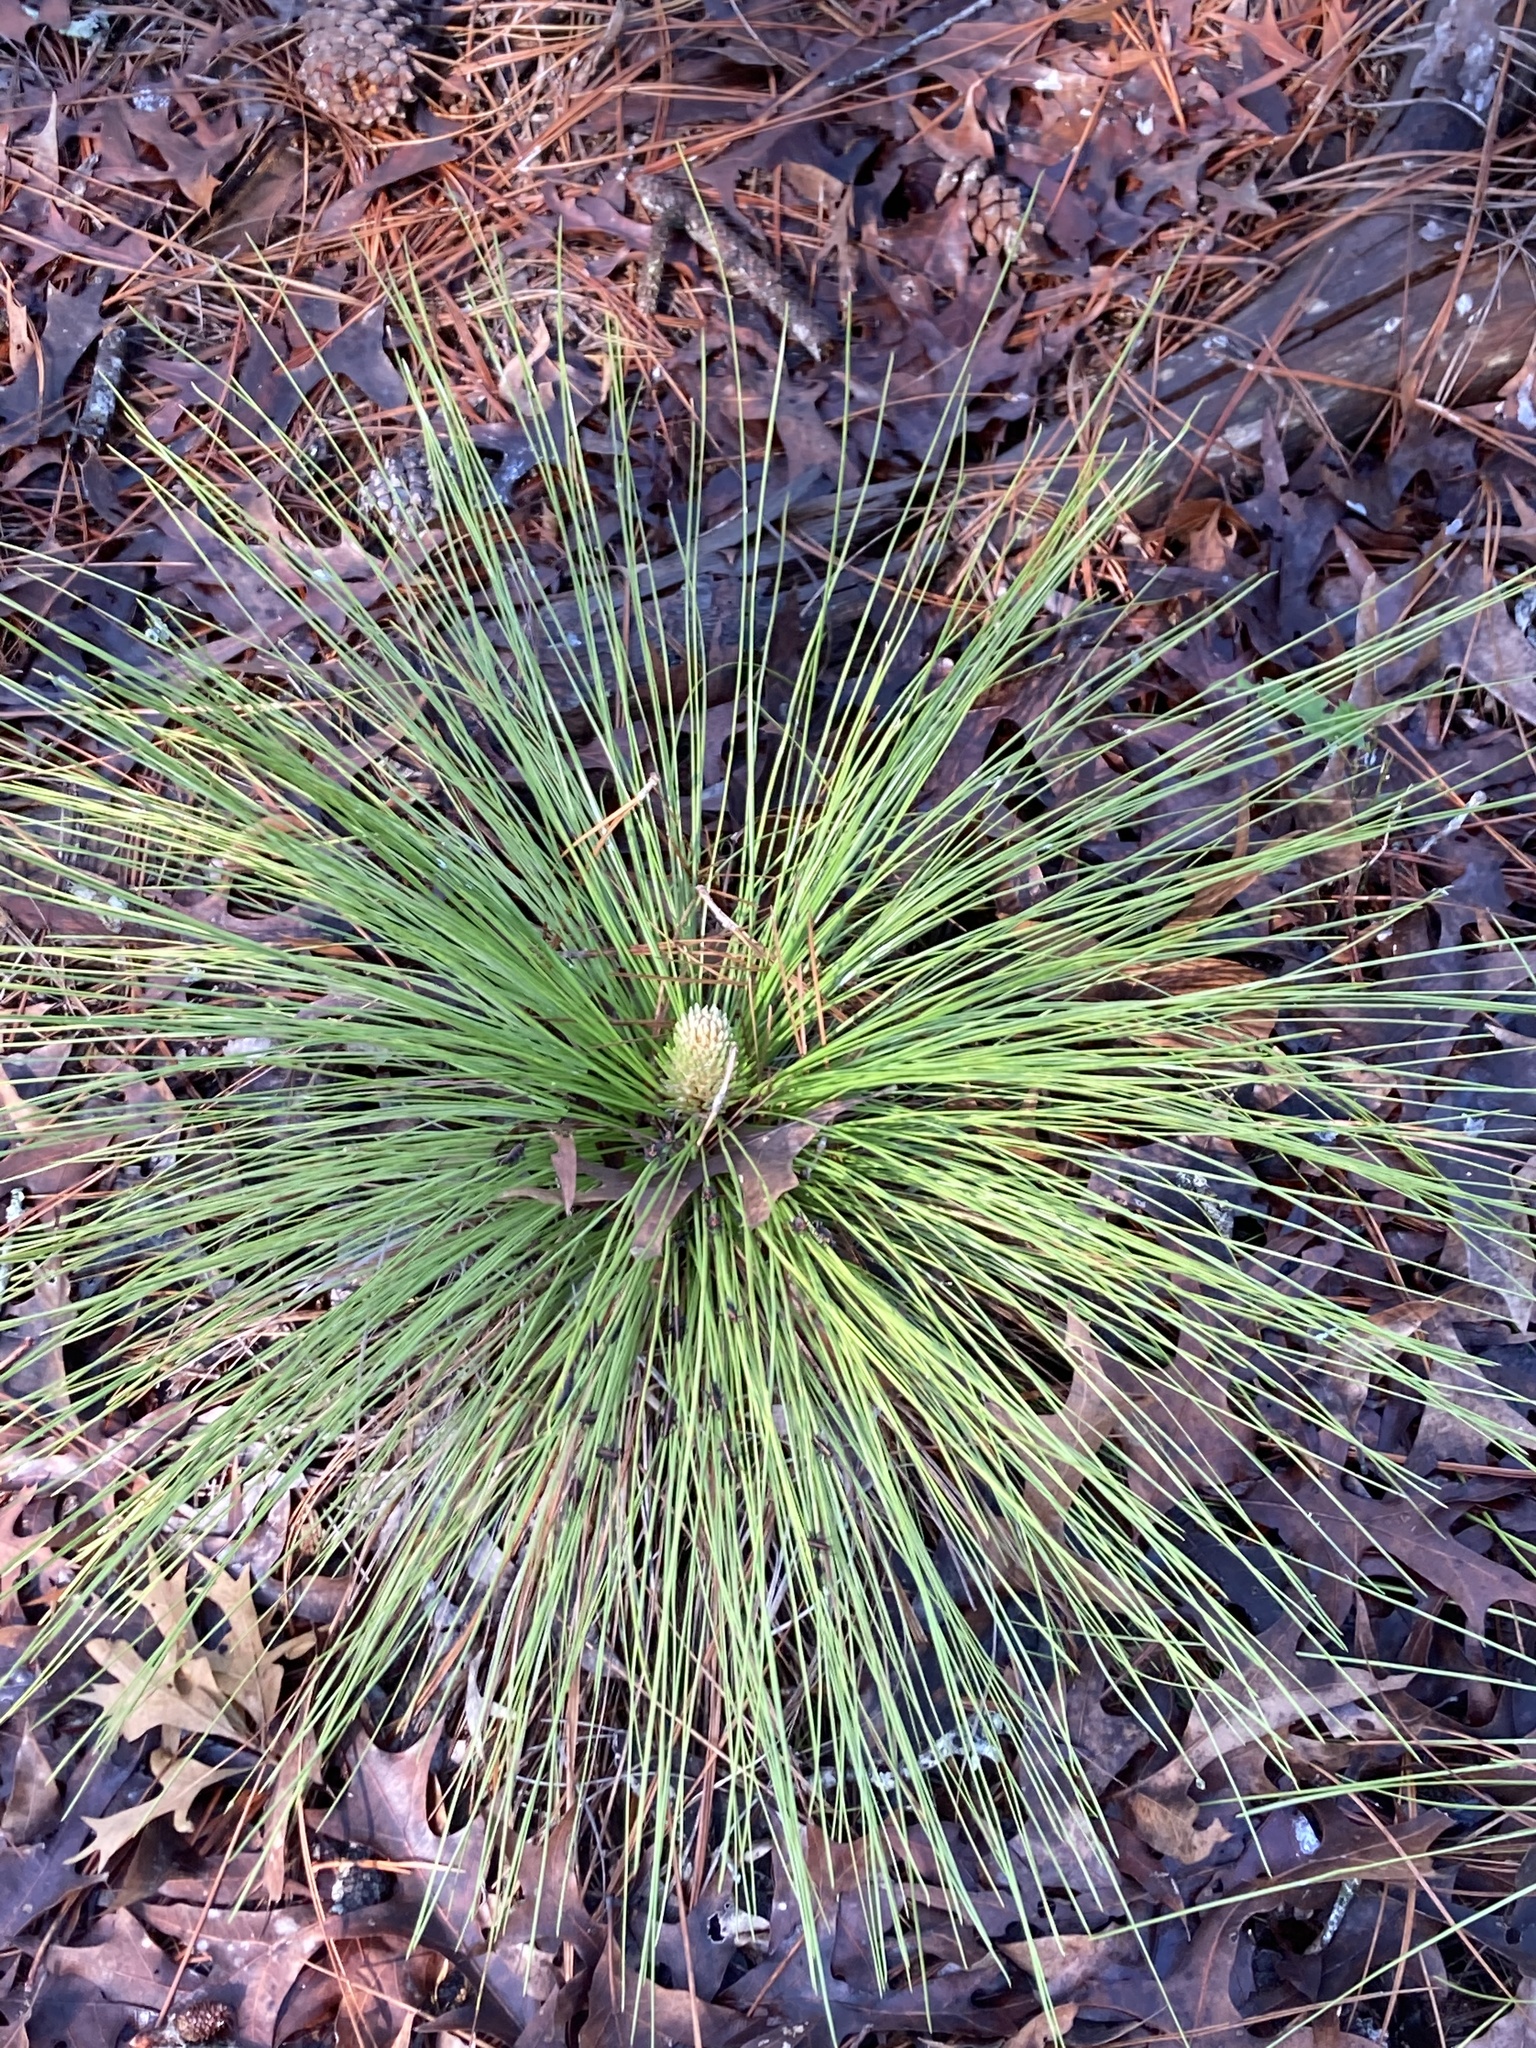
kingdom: Plantae
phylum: Tracheophyta
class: Pinopsida
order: Pinales
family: Pinaceae
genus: Pinus
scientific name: Pinus palustris
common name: Longleaf pine
